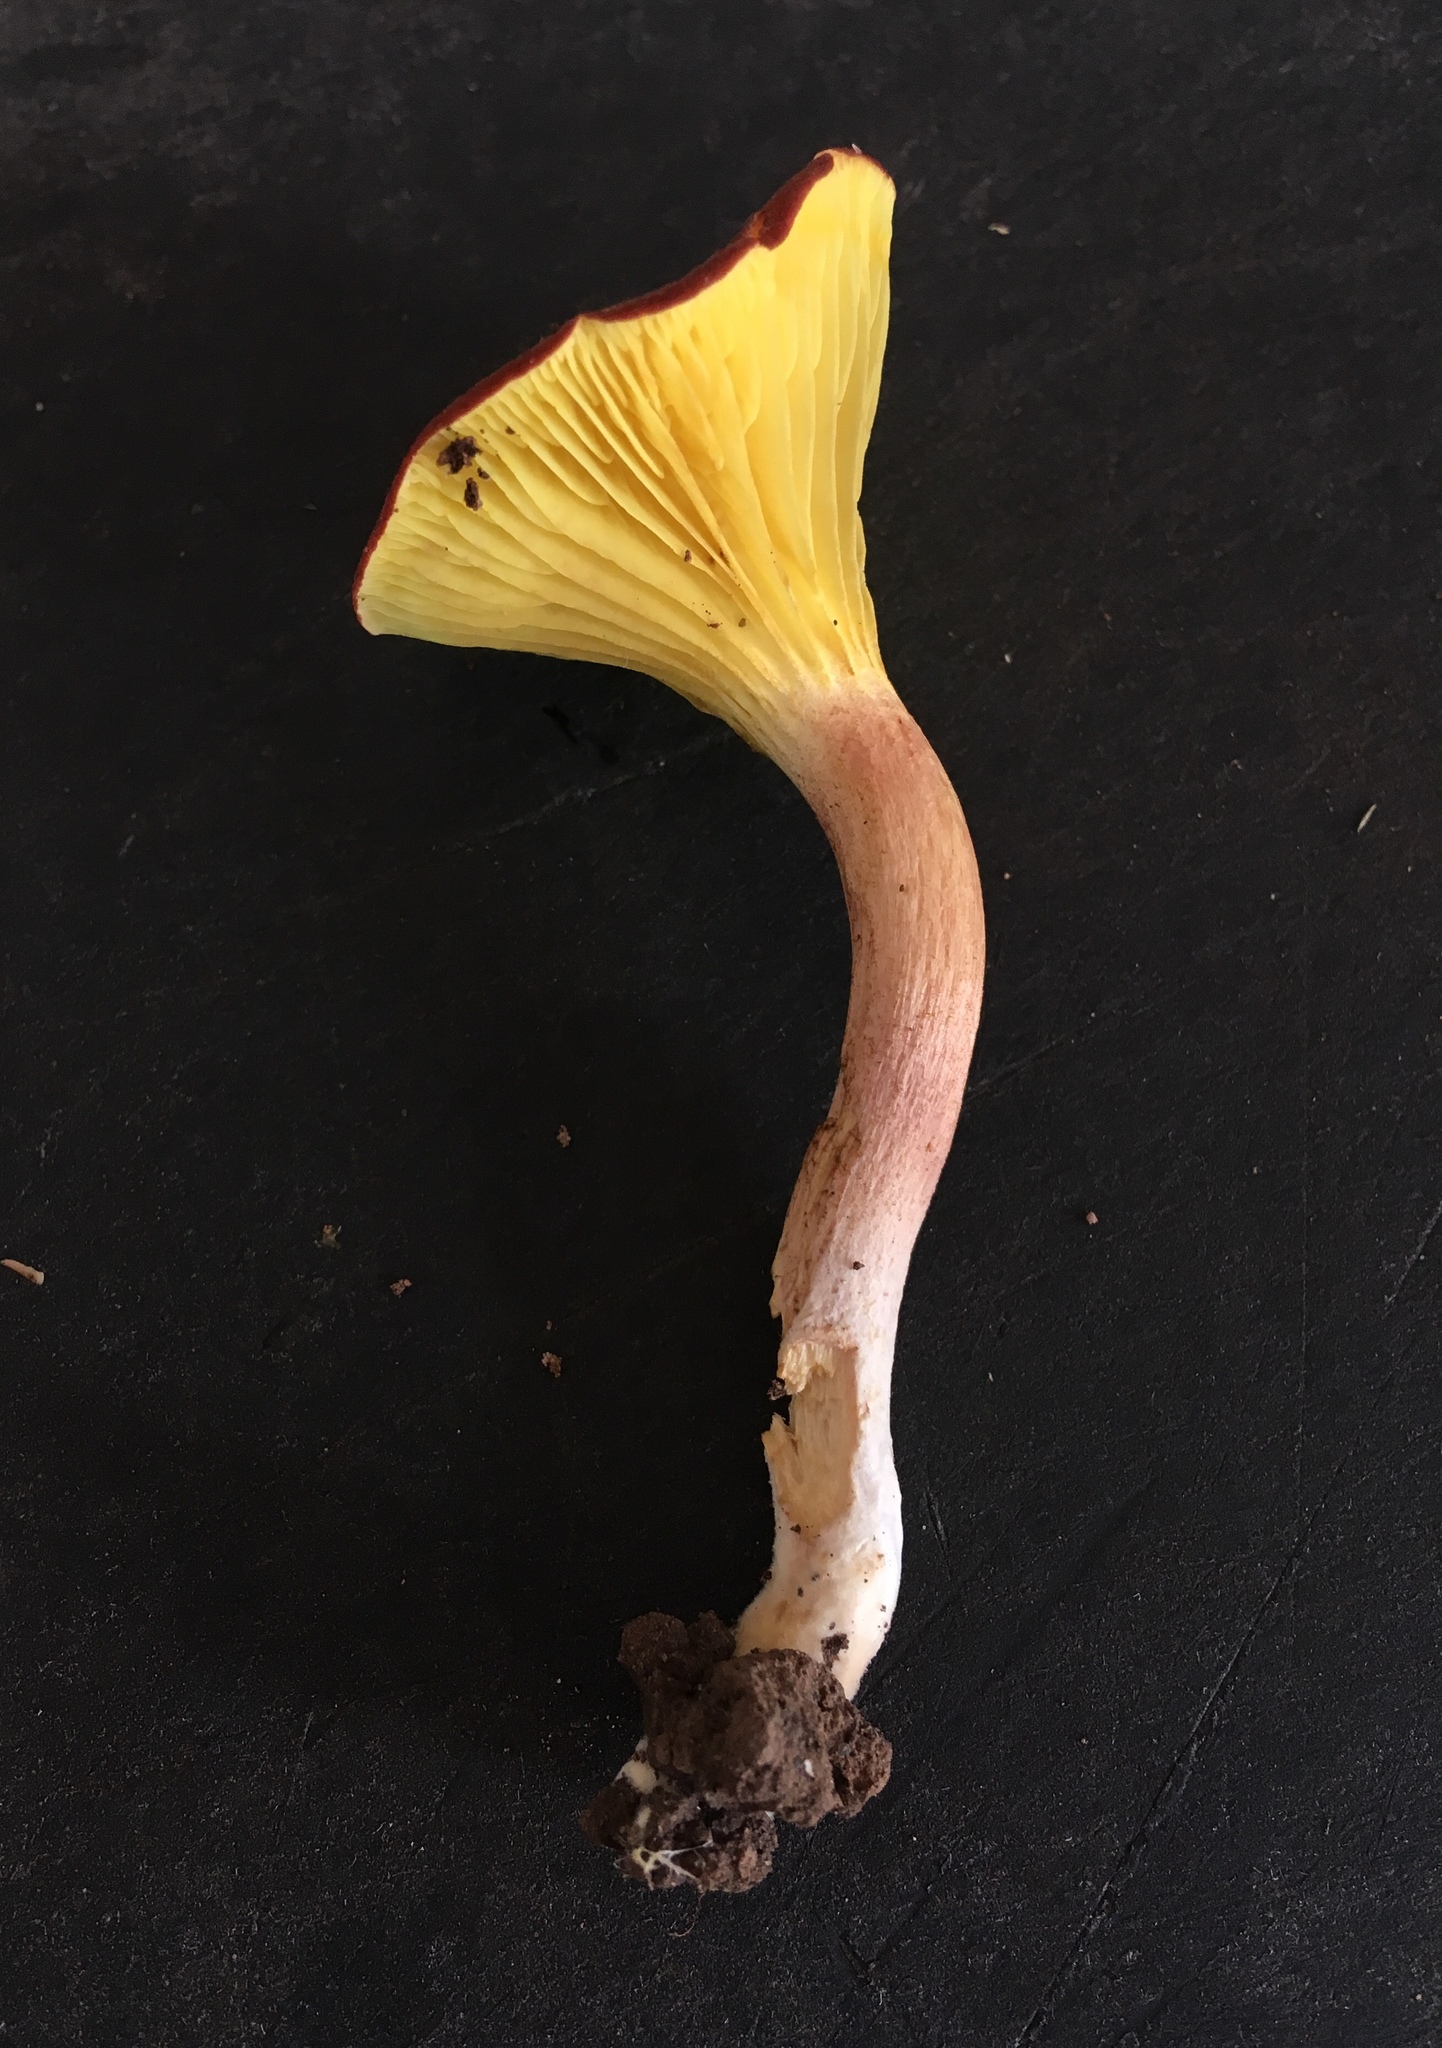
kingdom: Fungi
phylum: Basidiomycota
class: Agaricomycetes
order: Boletales
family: Boletaceae
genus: Phylloporus
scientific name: Phylloporus leucomycelinus
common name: Gilled bolete
